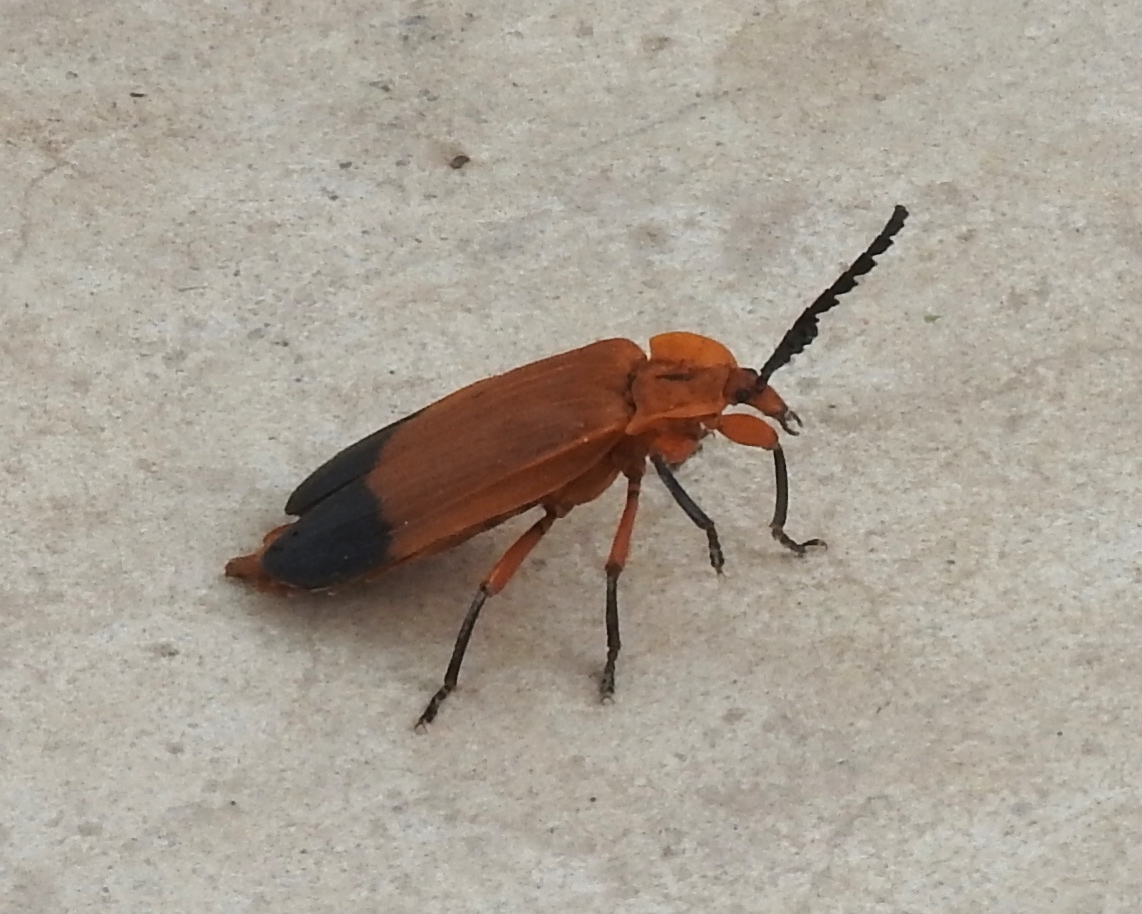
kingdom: Animalia
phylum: Arthropoda
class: Insecta
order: Coleoptera
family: Lycidae
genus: Lycus
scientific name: Lycus fernandezi
